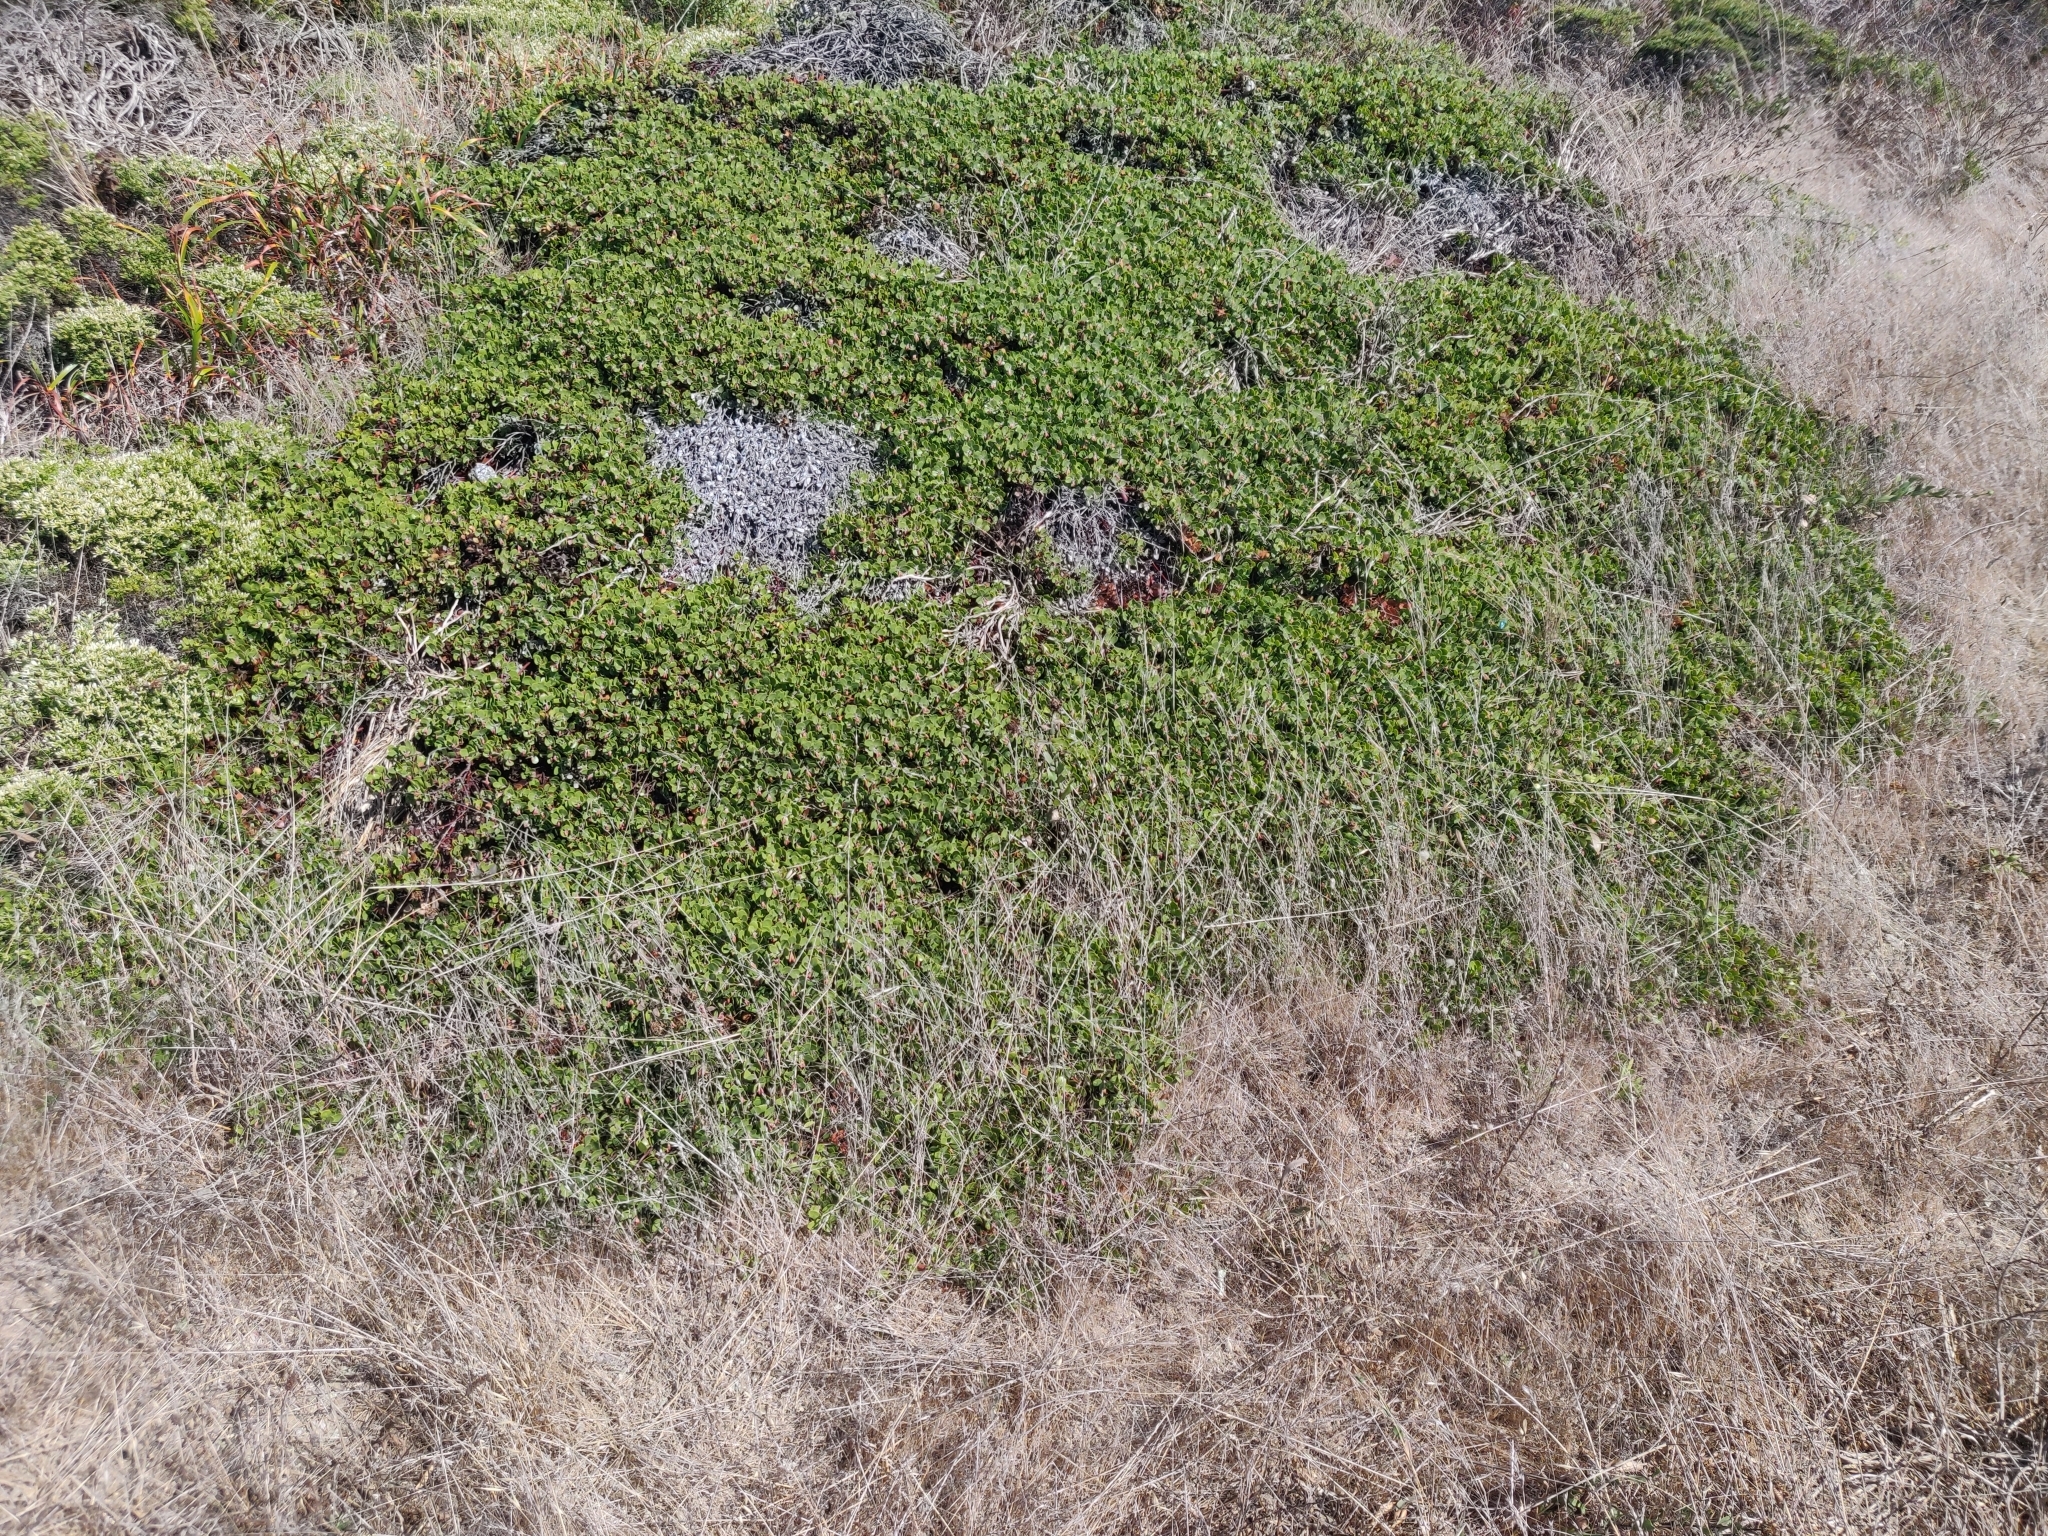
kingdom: Plantae
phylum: Tracheophyta
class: Magnoliopsida
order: Ericales
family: Ericaceae
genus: Arctostaphylos
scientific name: Arctostaphylos mewukka
